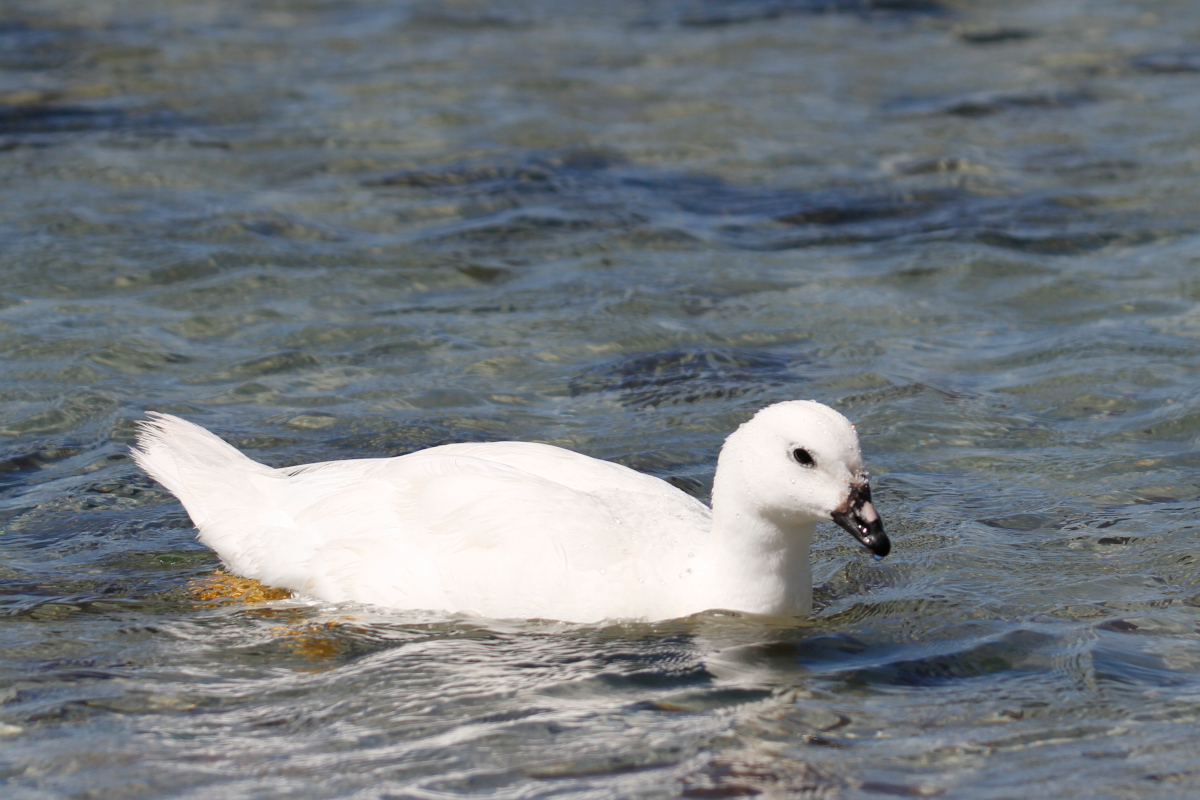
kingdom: Animalia
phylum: Chordata
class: Aves
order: Anseriformes
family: Anatidae
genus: Chloephaga
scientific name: Chloephaga hybrida
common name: Kelp goose
